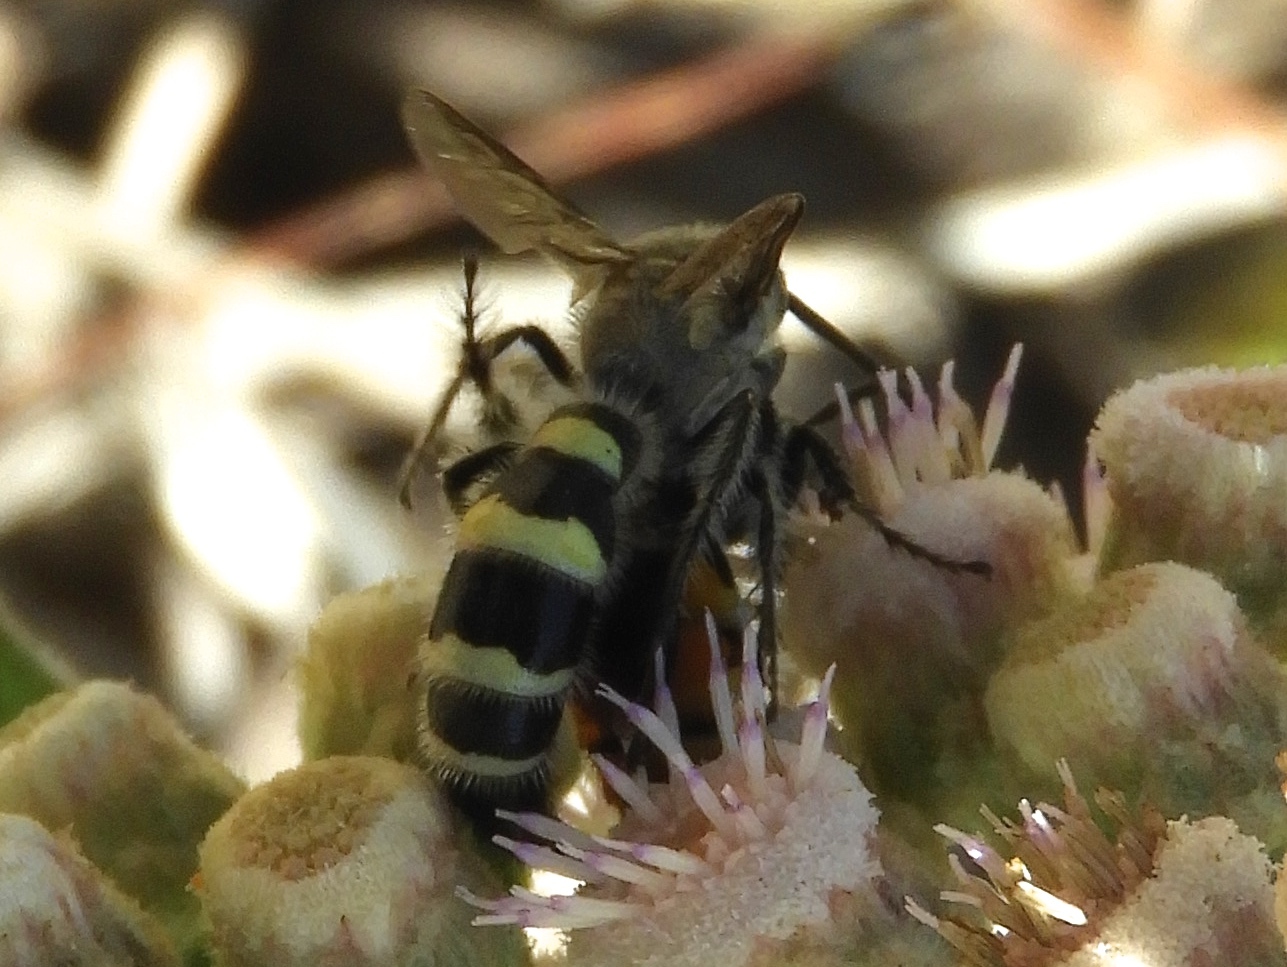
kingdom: Animalia
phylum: Arthropoda
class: Insecta
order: Hymenoptera
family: Scoliidae
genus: Dielis
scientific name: Dielis tolteca
